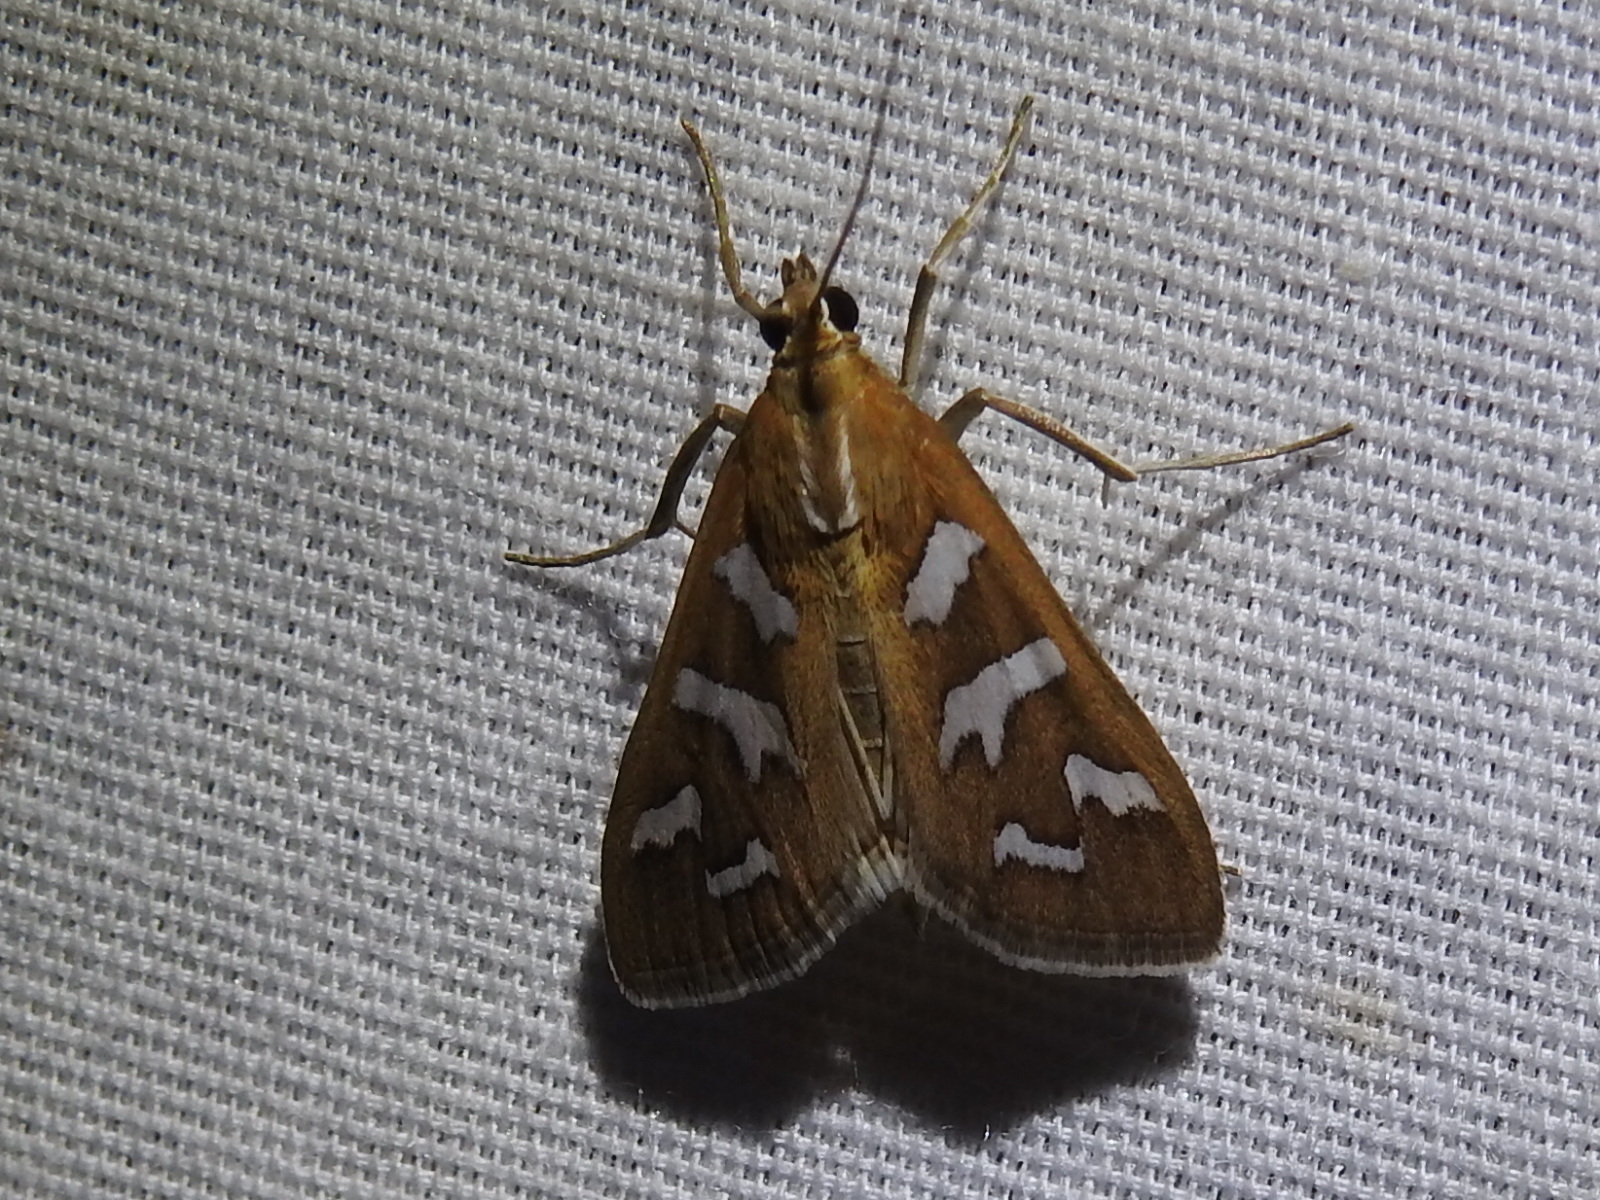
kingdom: Animalia
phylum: Arthropoda
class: Insecta
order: Lepidoptera
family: Crambidae
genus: Diastictis
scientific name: Diastictis fracturalis
